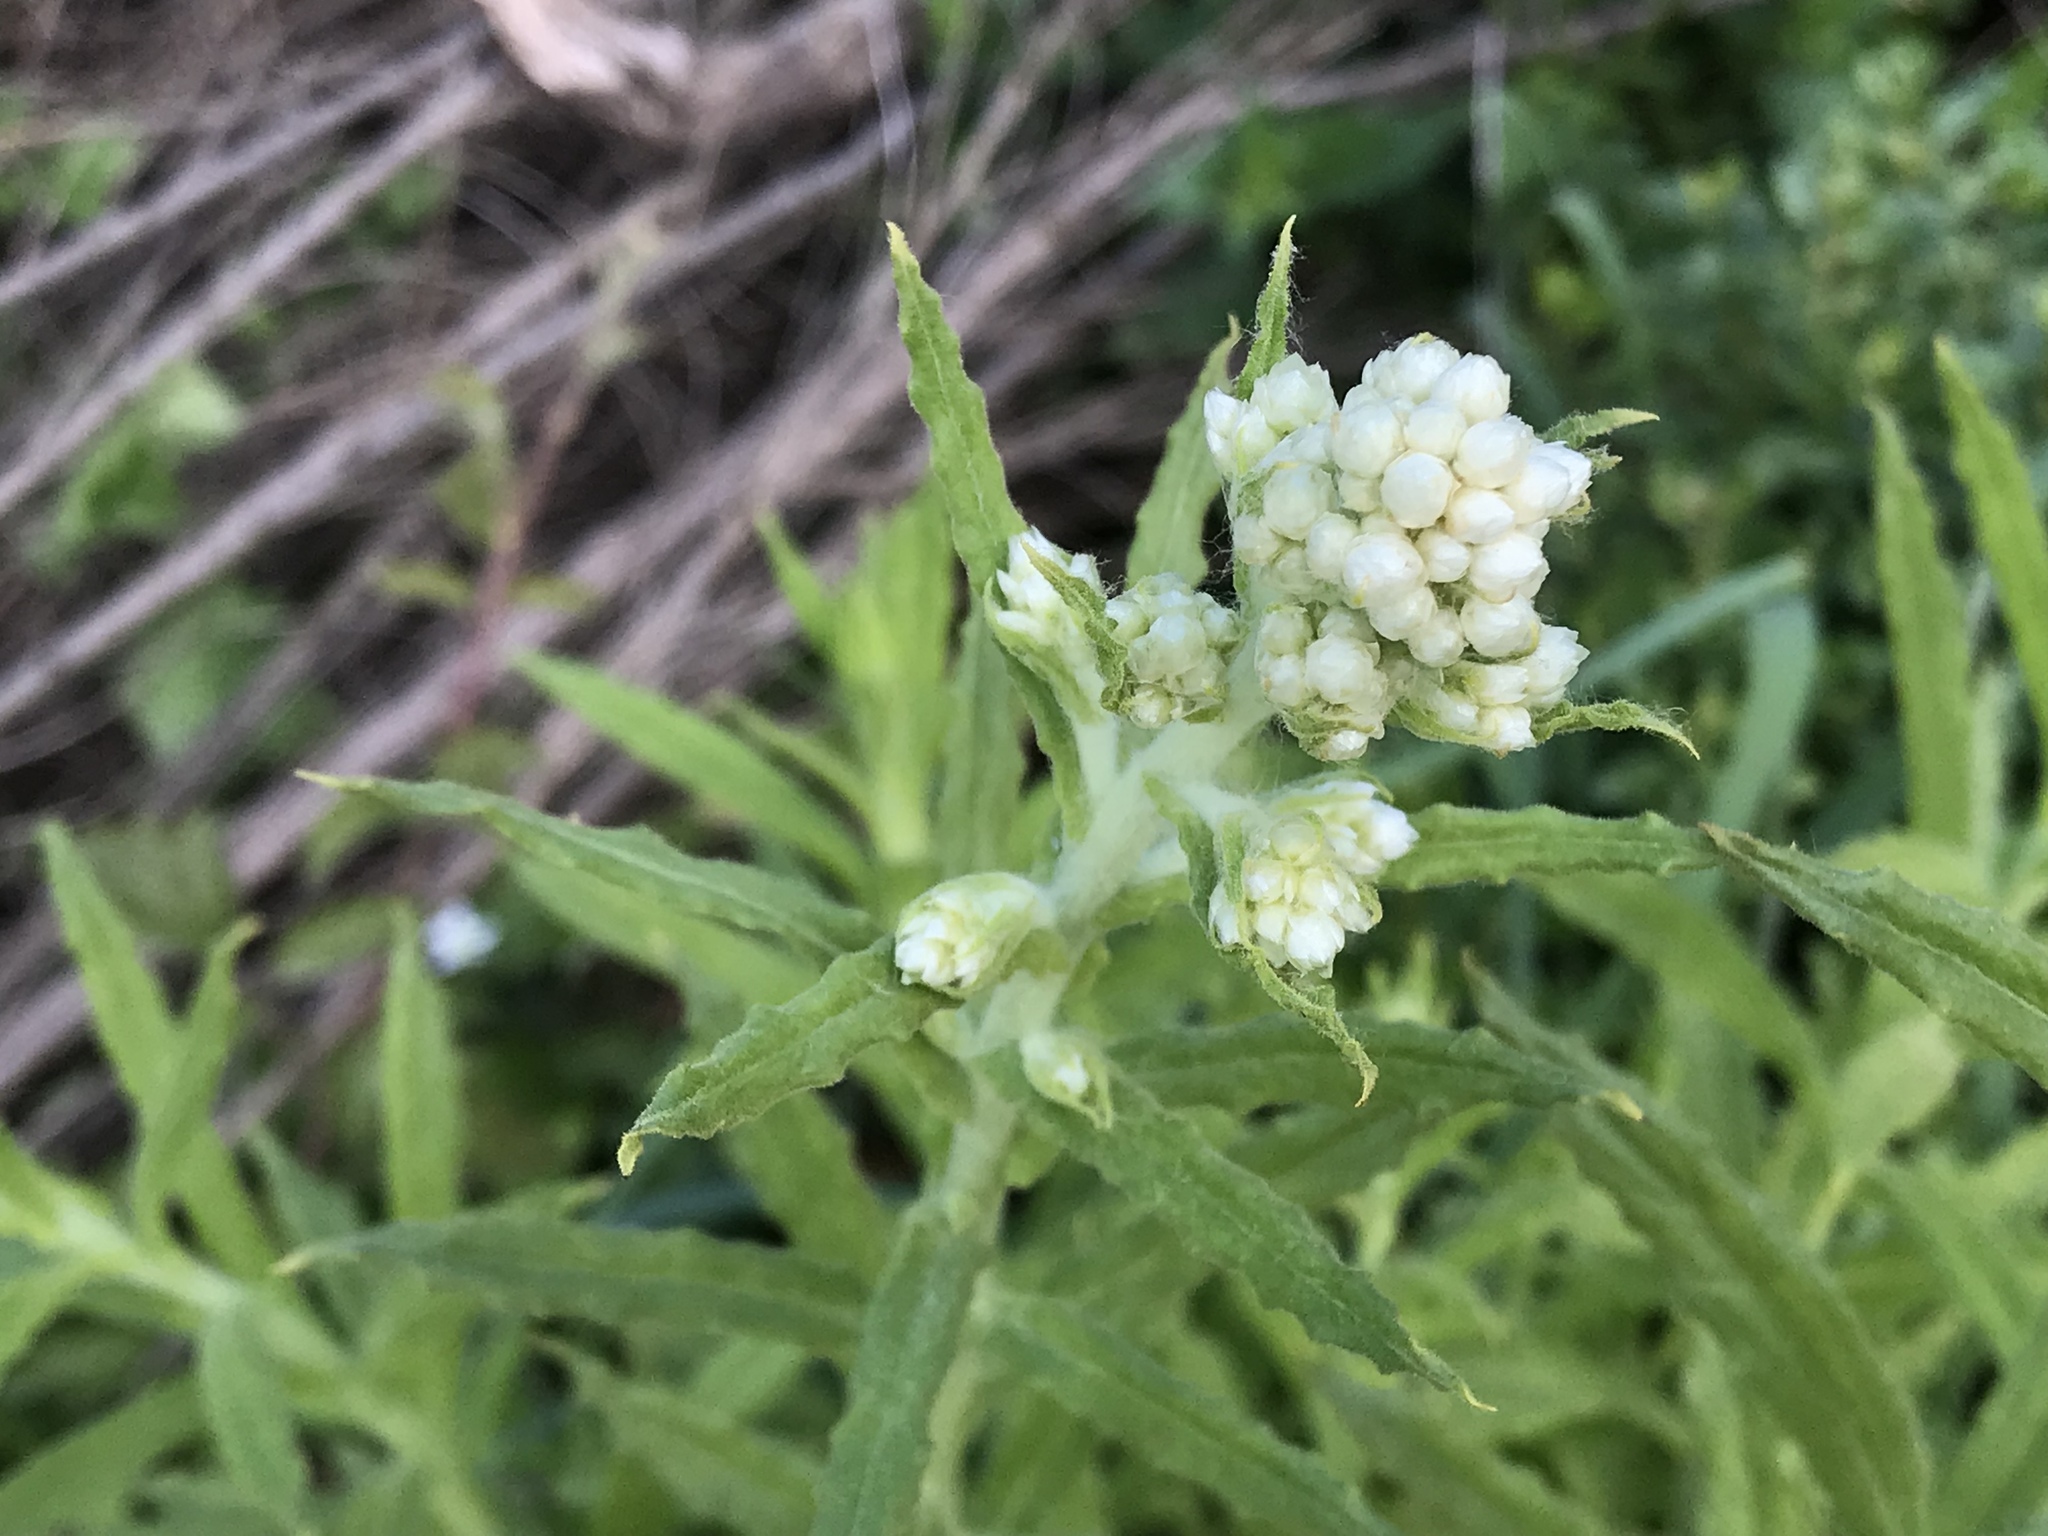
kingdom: Plantae
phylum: Tracheophyta
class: Magnoliopsida
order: Asterales
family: Asteraceae
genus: Pseudognaphalium
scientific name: Pseudognaphalium californicum
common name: California rabbit-tobacco
